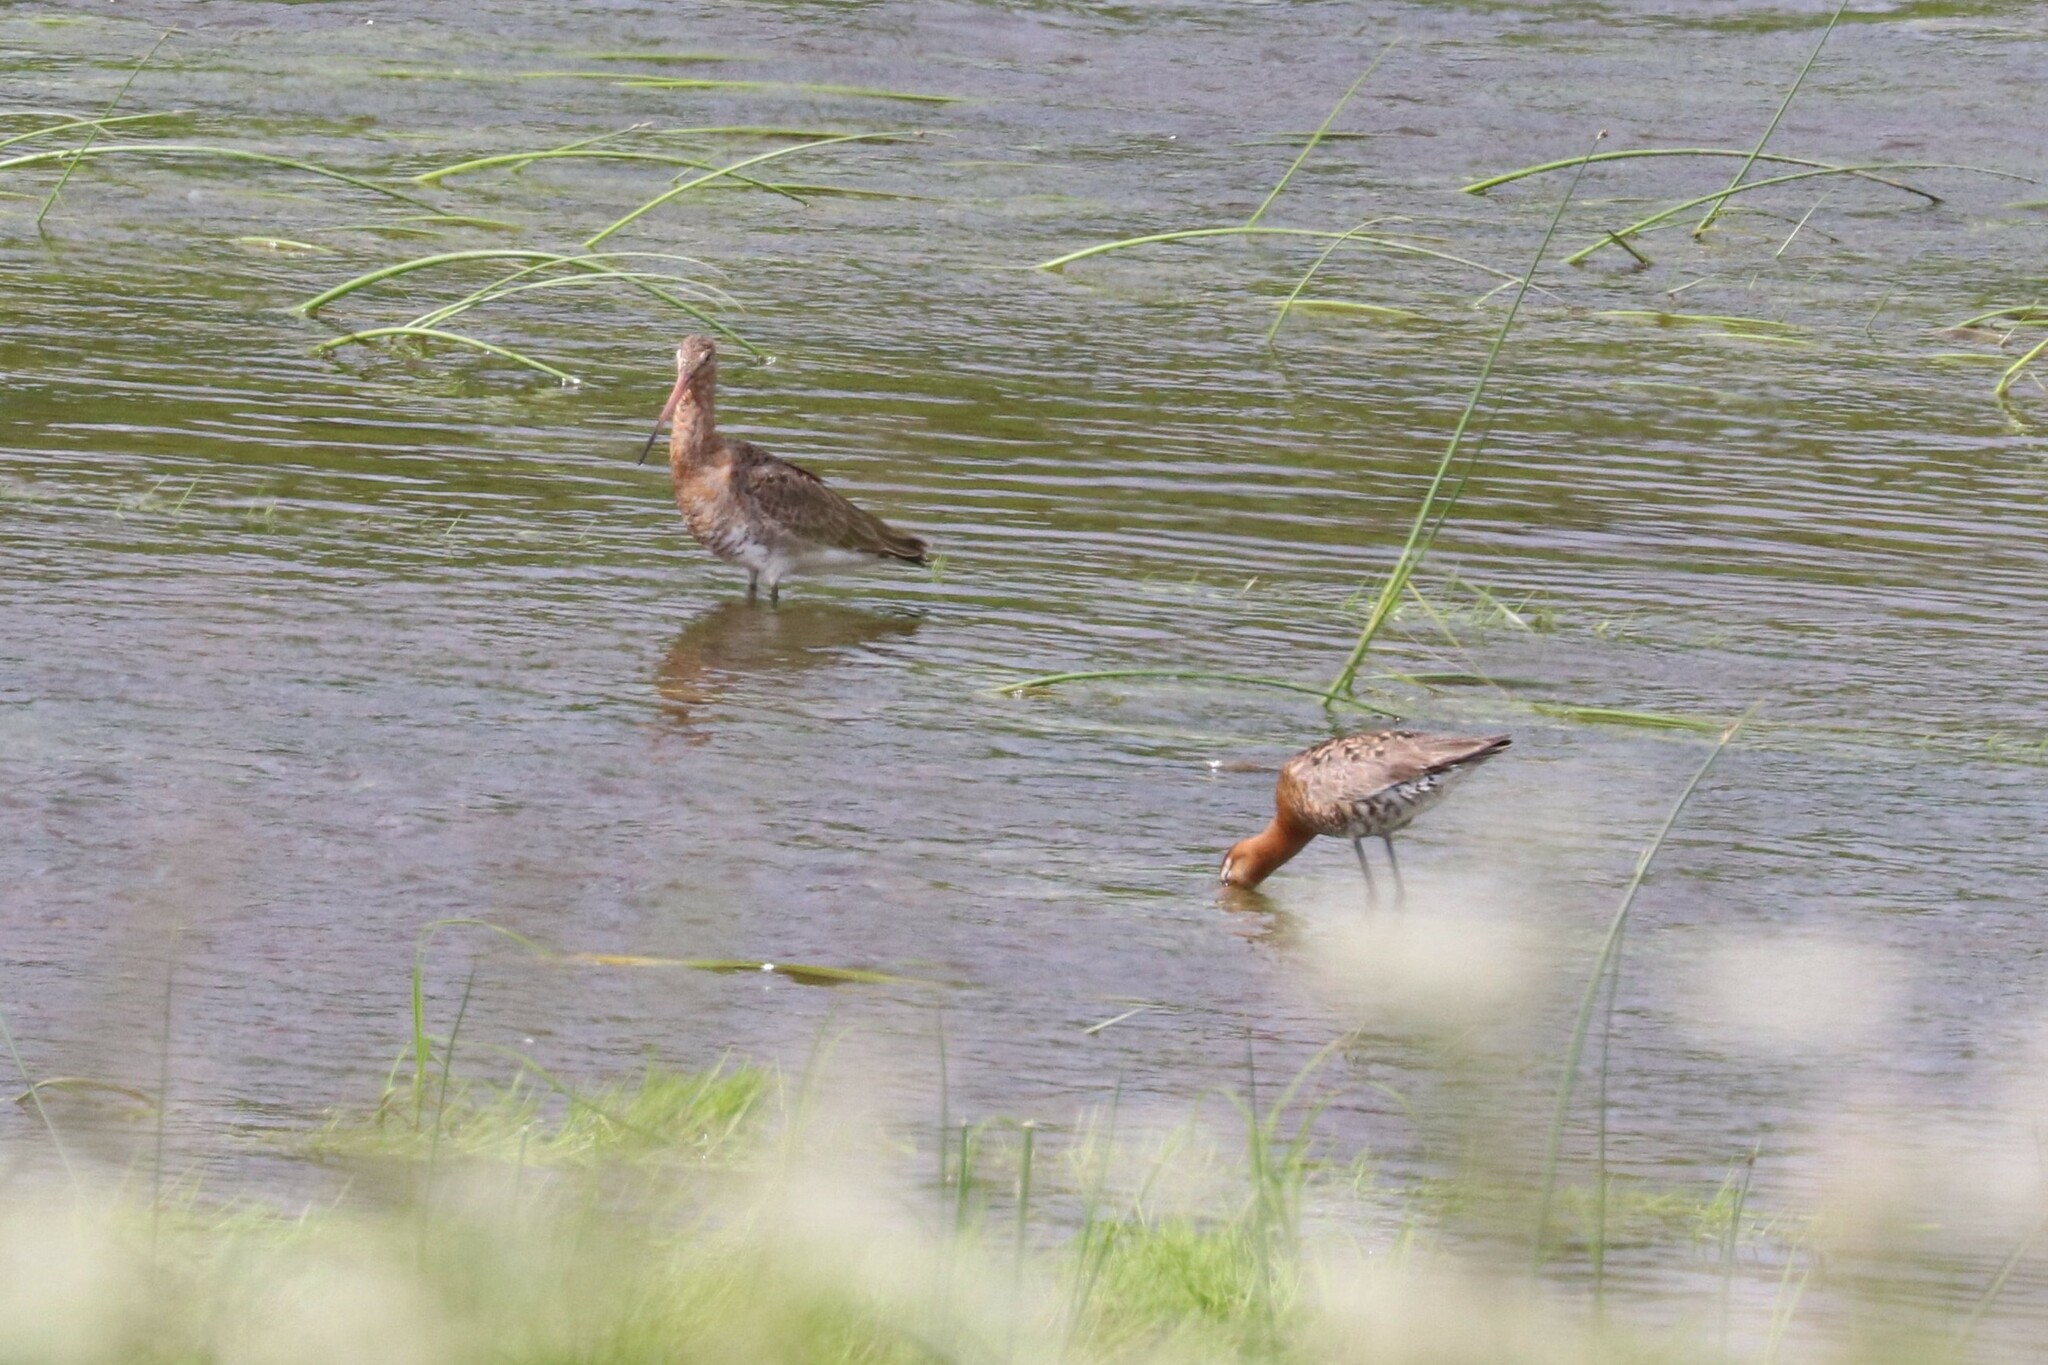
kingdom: Animalia
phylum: Chordata
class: Aves
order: Charadriiformes
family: Scolopacidae
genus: Limosa
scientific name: Limosa limosa
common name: Black-tailed godwit
